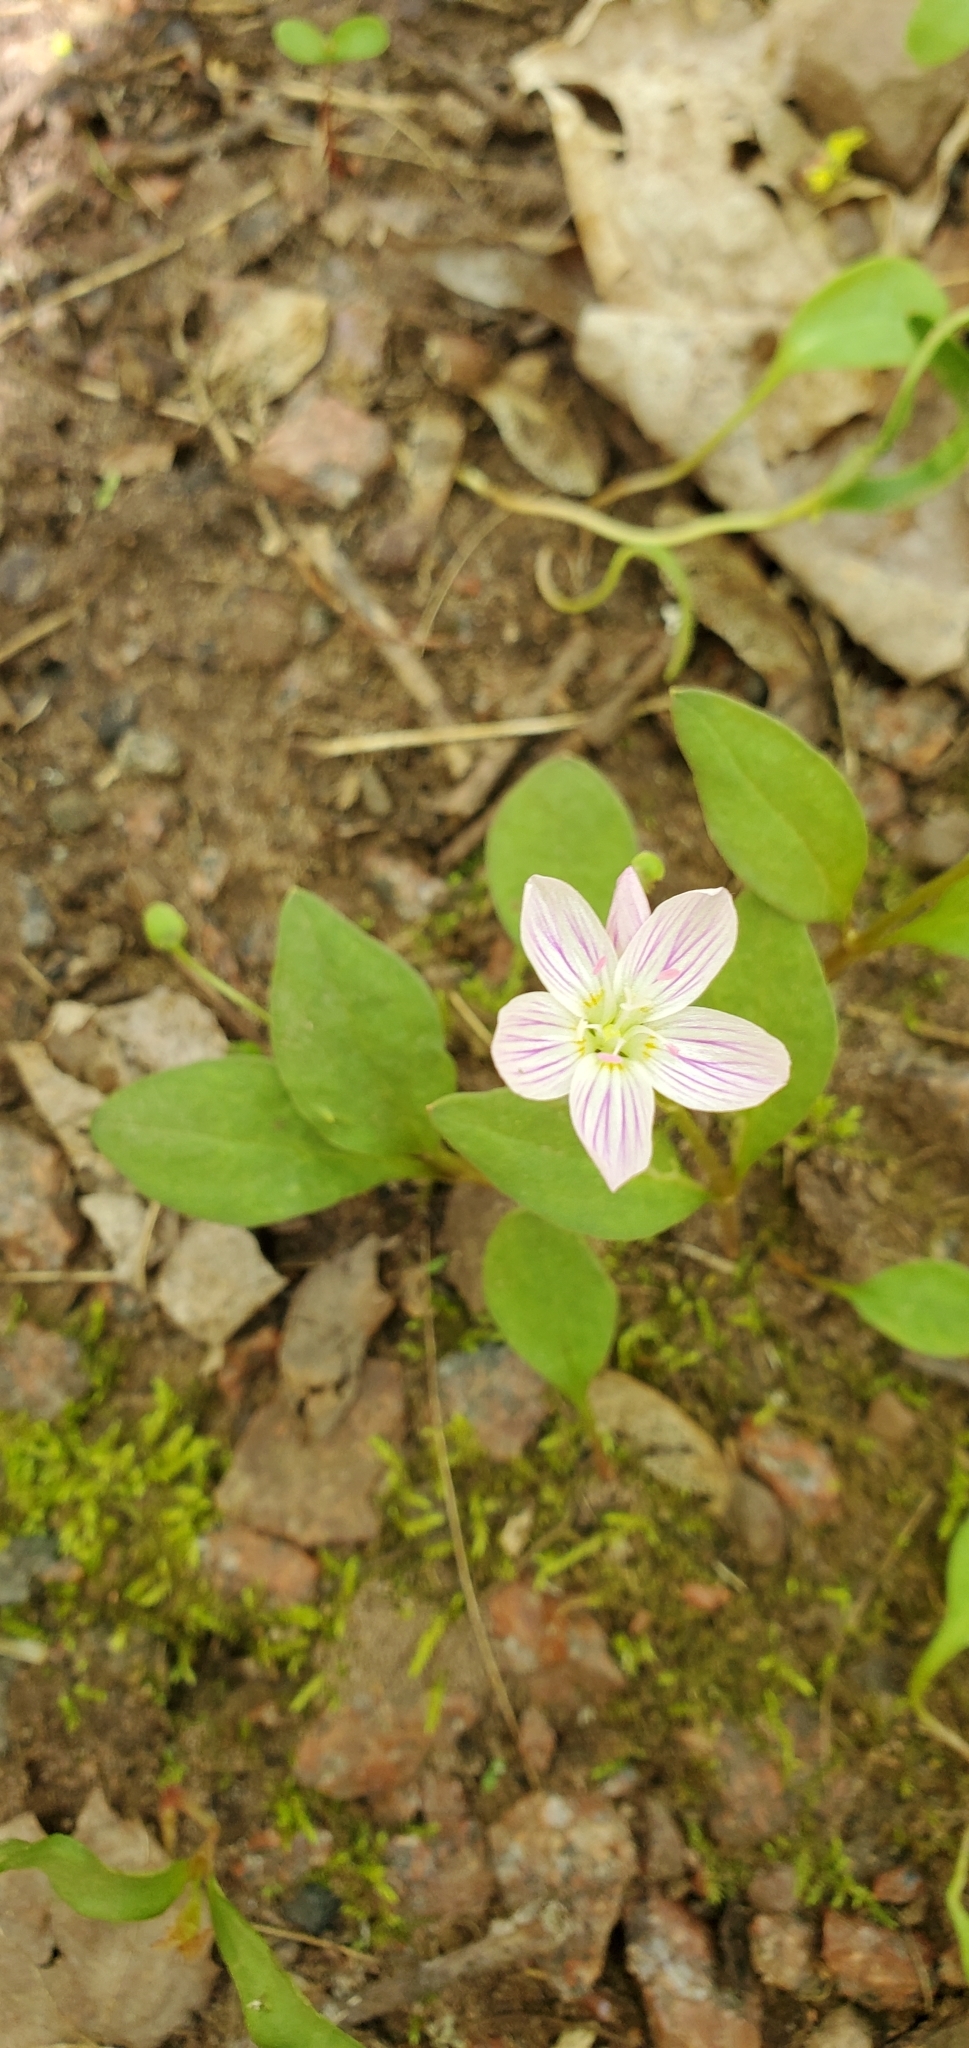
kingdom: Plantae
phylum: Tracheophyta
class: Magnoliopsida
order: Caryophyllales
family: Montiaceae
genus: Claytonia
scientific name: Claytonia caroliniana
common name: Carolina spring beauty
